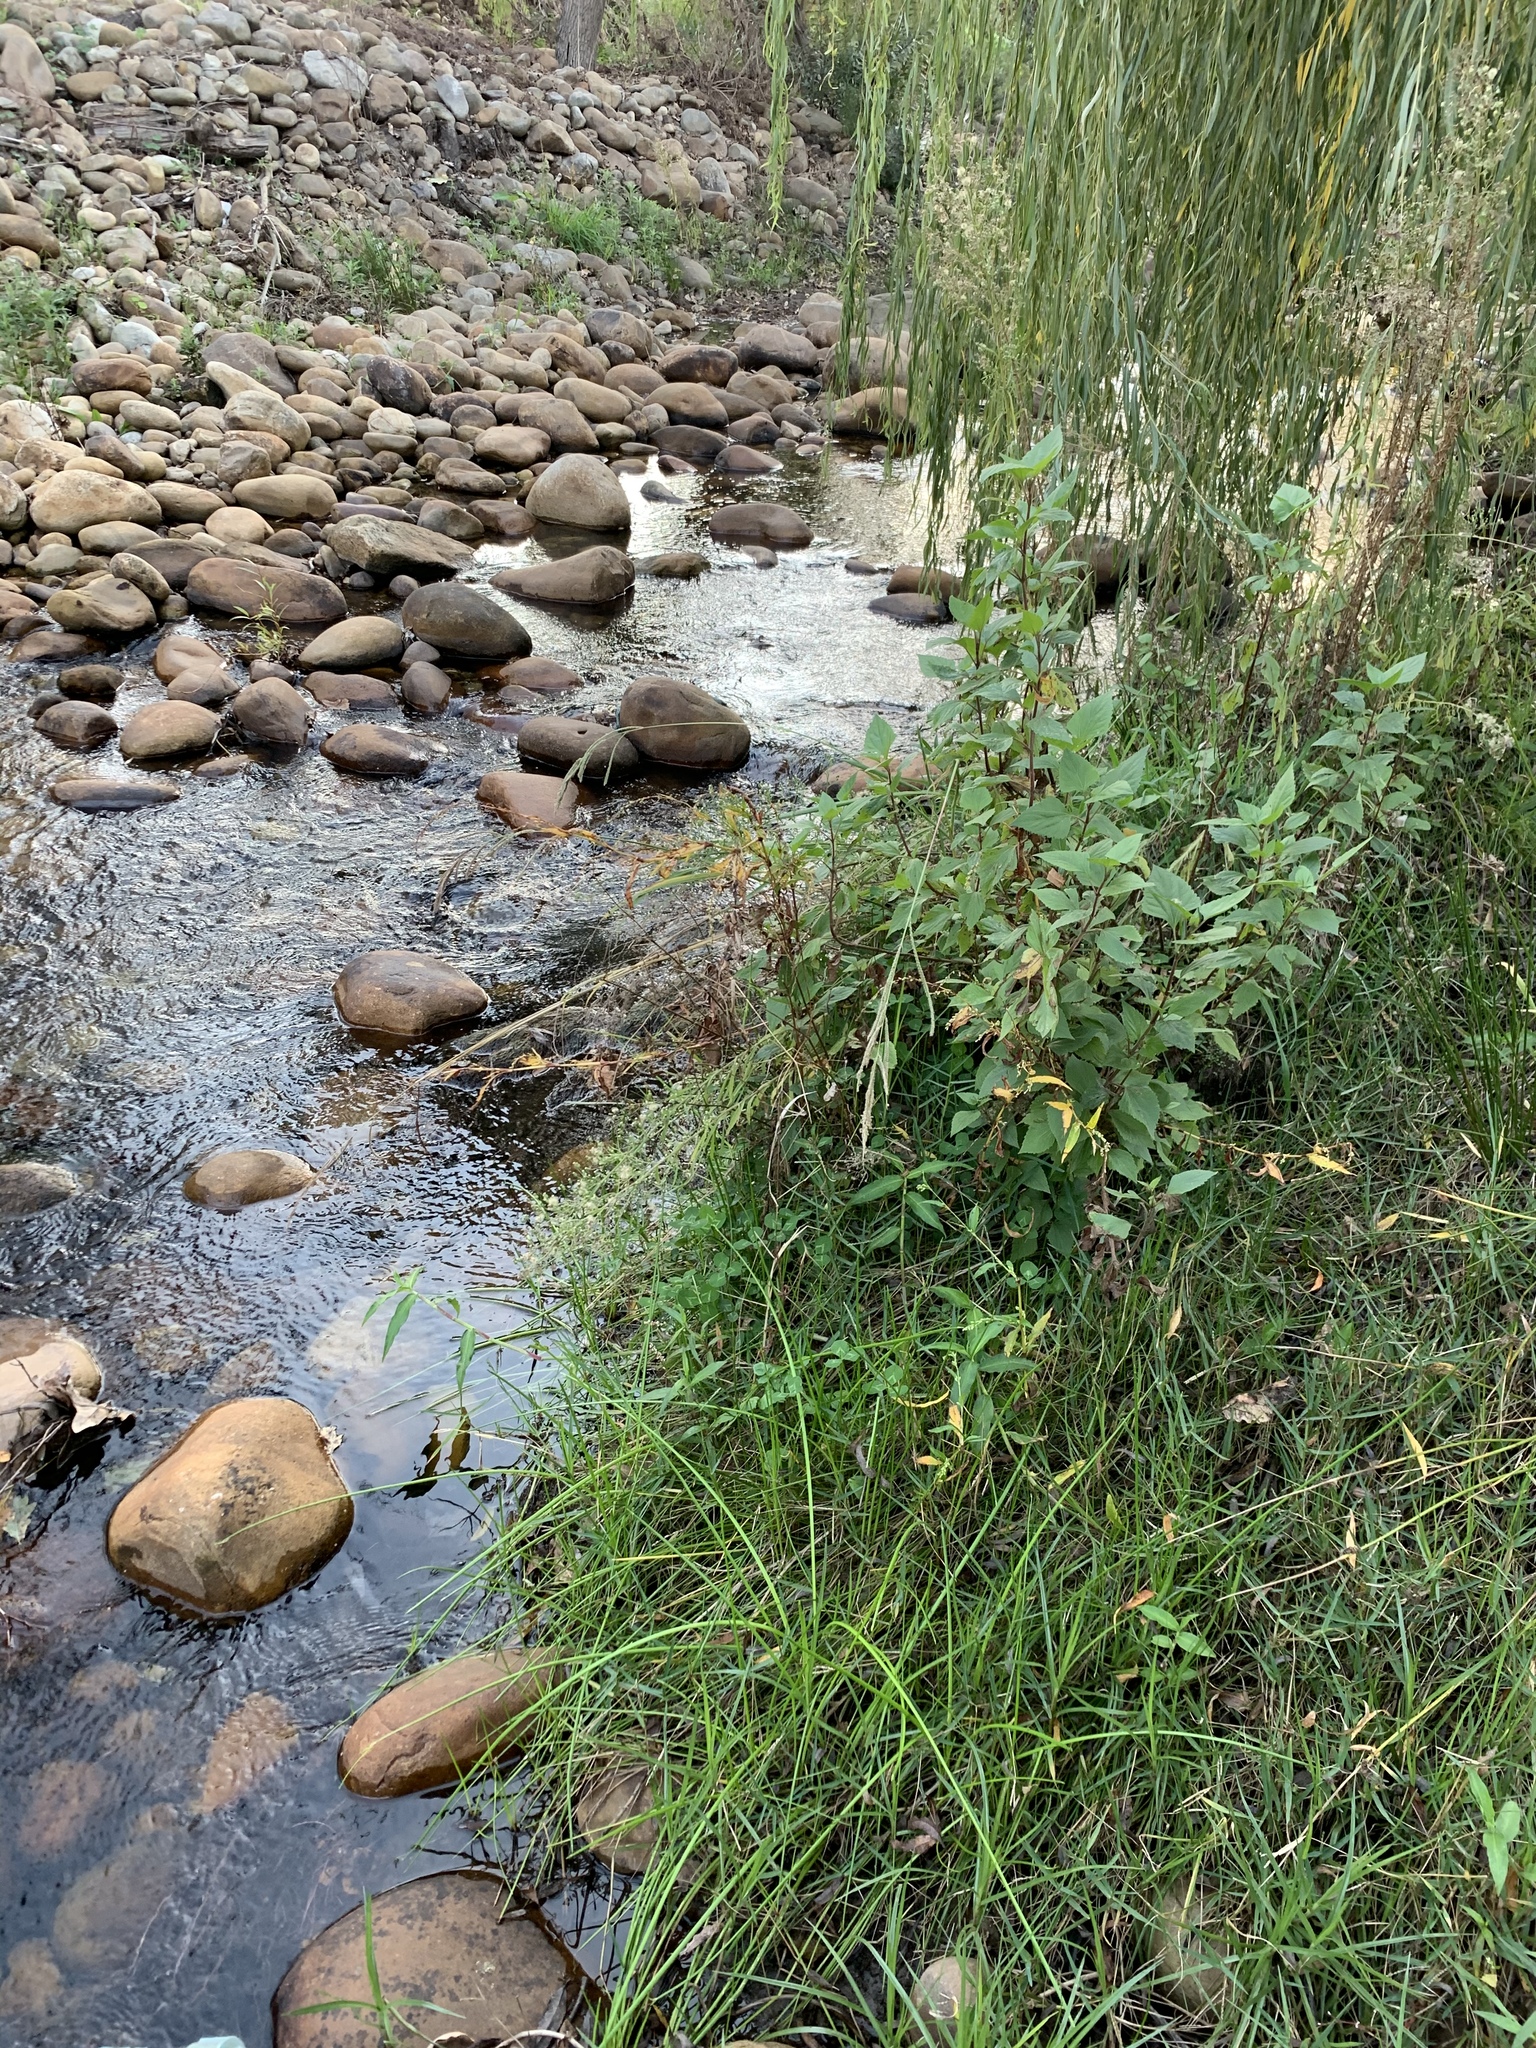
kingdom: Plantae
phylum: Tracheophyta
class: Magnoliopsida
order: Asterales
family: Asteraceae
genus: Ageratina
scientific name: Ageratina adenophora
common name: Sticky snakeroot
